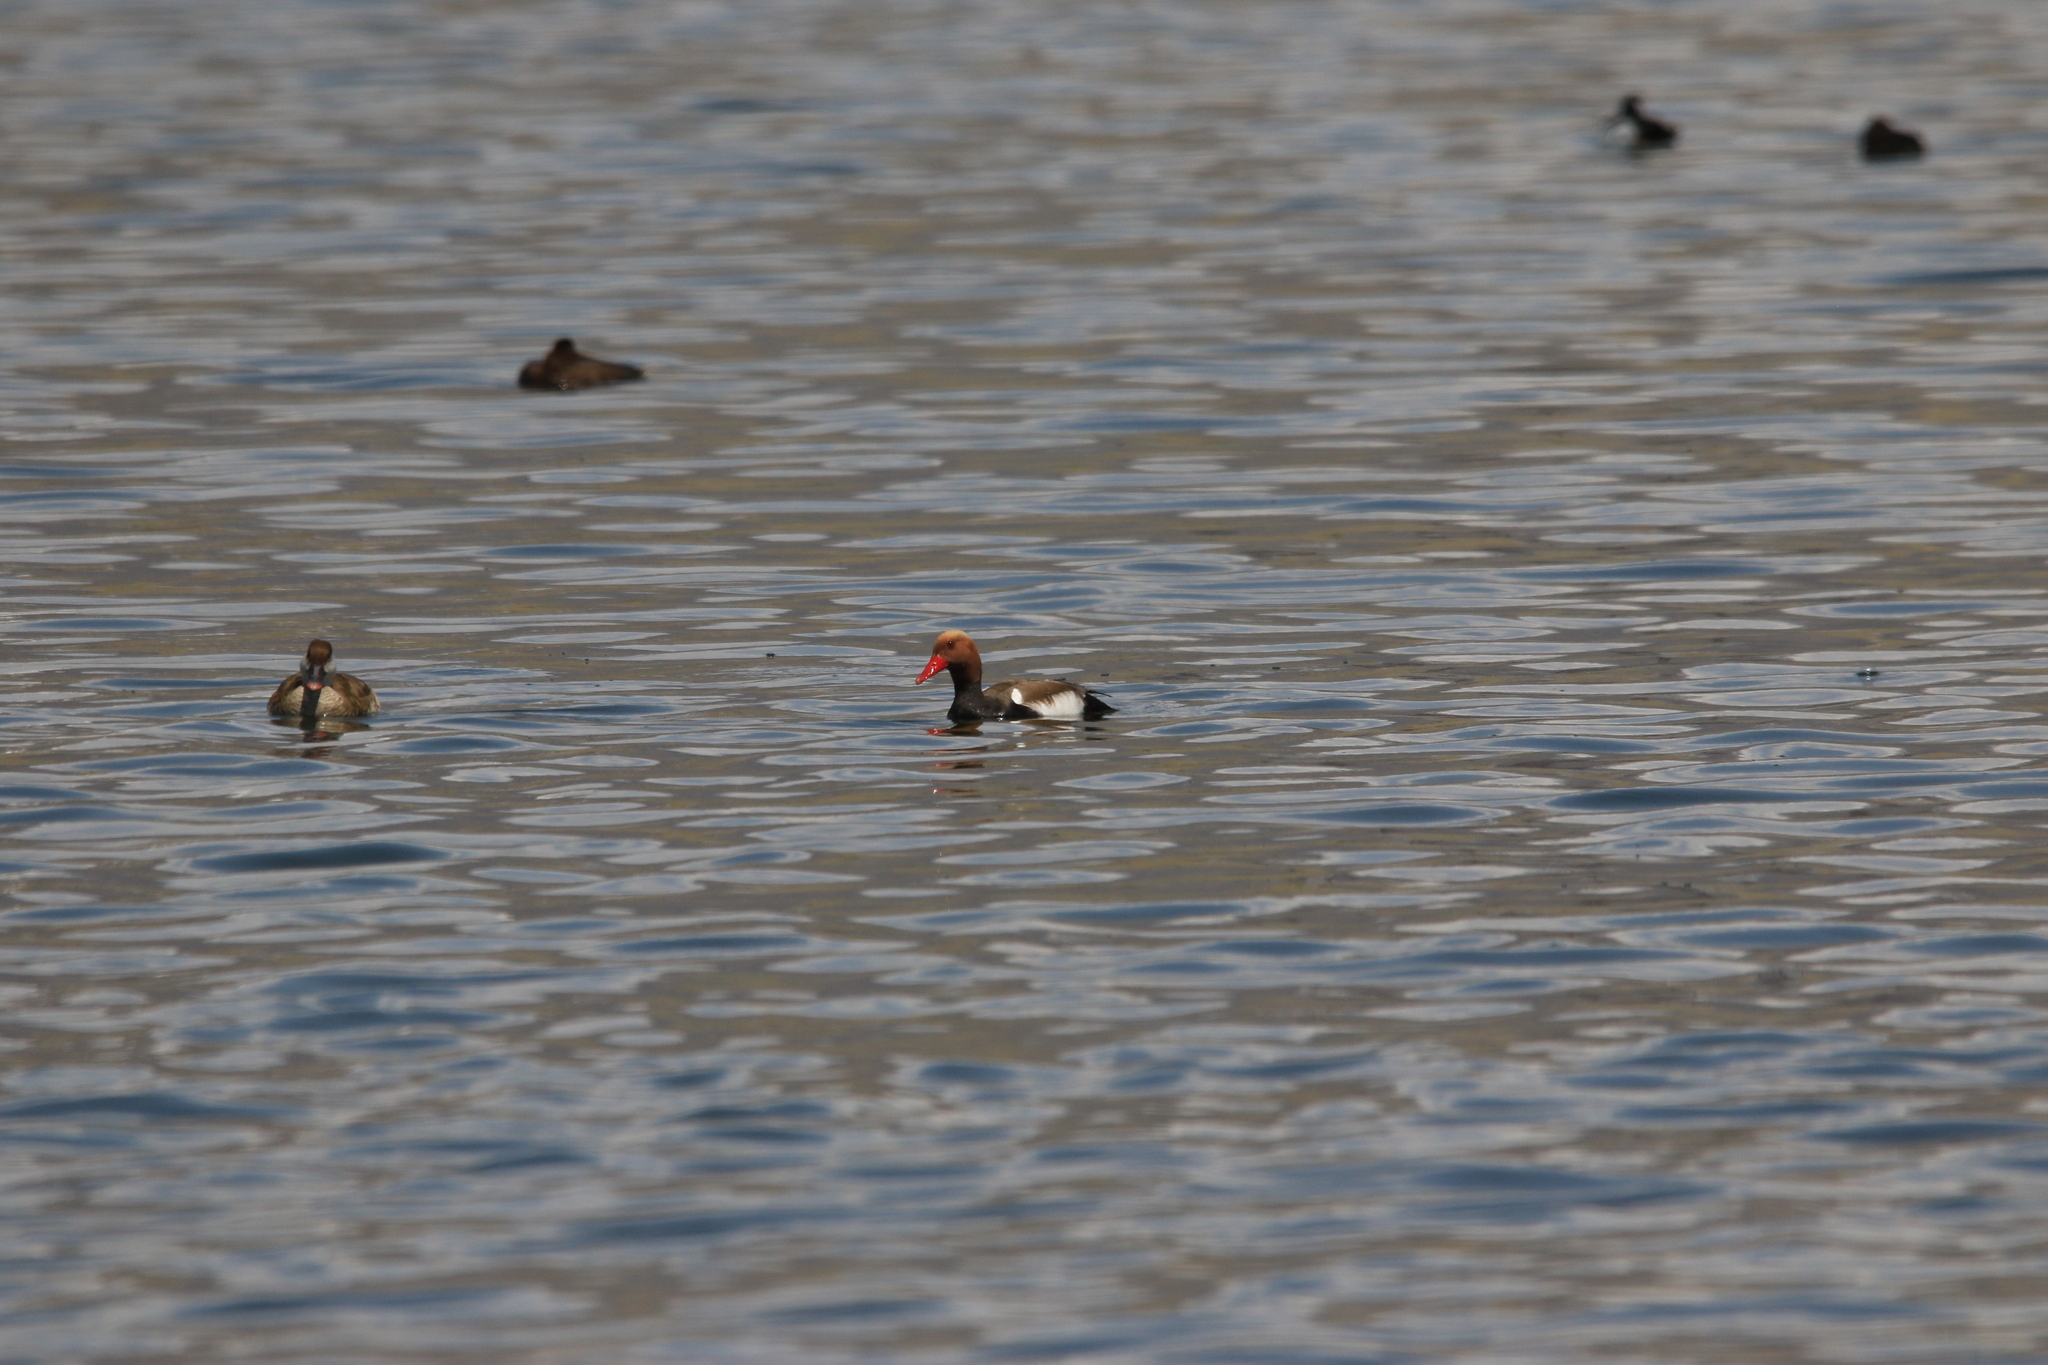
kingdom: Animalia
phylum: Chordata
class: Aves
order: Anseriformes
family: Anatidae
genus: Netta
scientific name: Netta rufina
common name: Red-crested pochard
